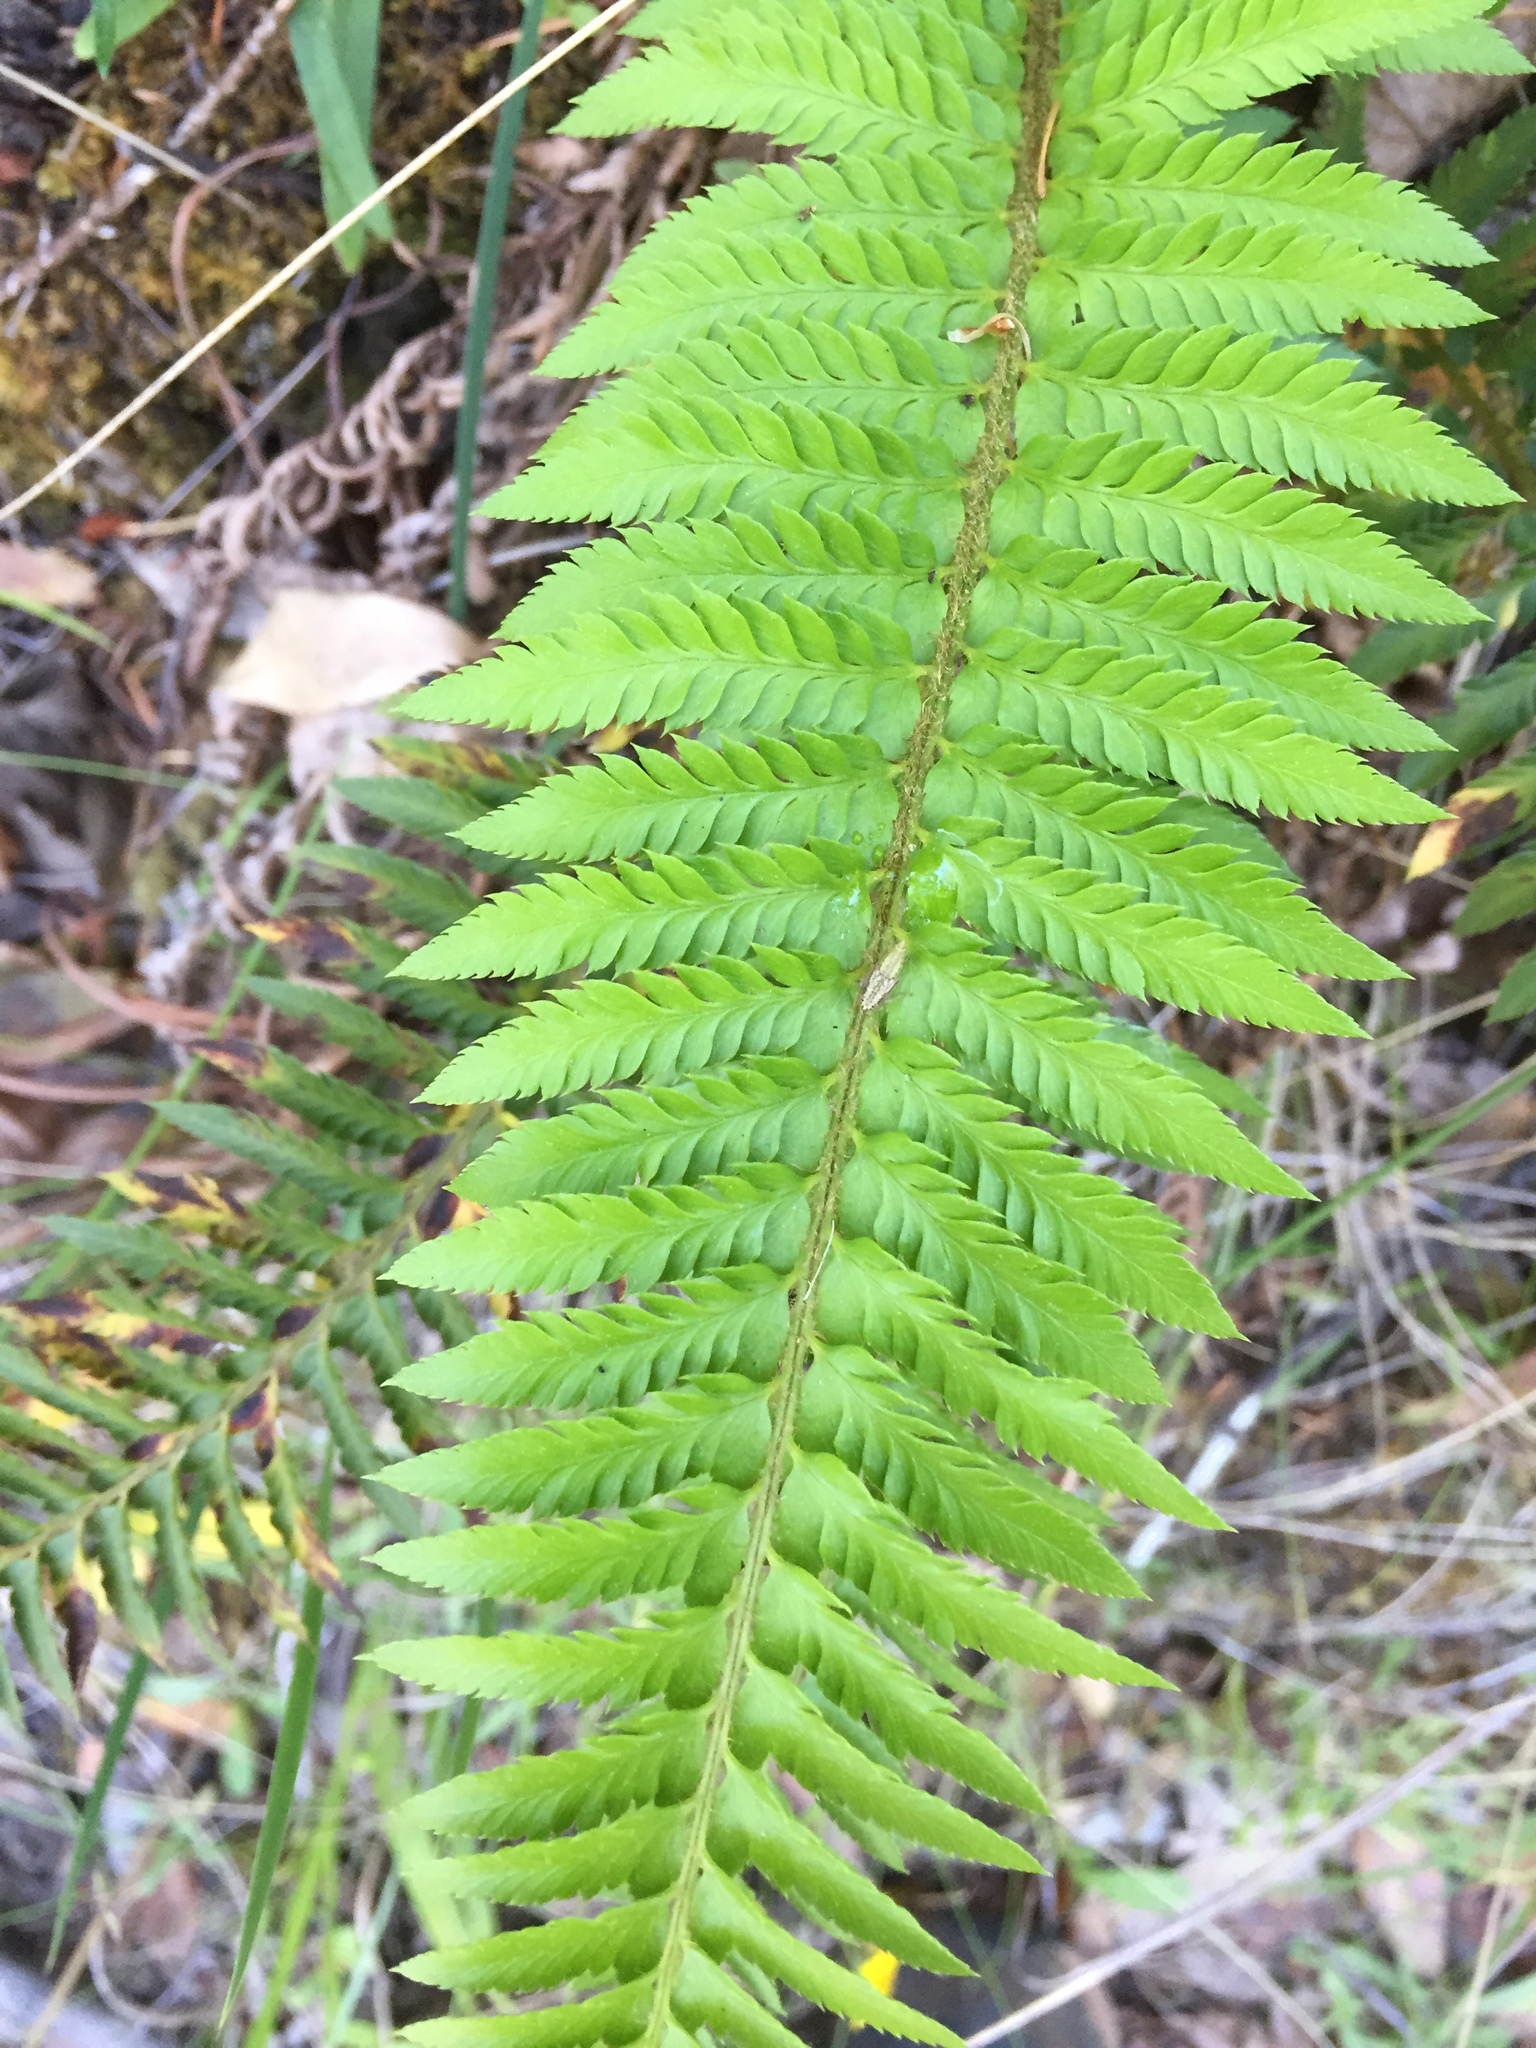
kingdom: Plantae
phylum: Tracheophyta
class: Polypodiopsida
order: Polypodiales
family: Dryopteridaceae
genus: Polystichum
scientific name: Polystichum californicum
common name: California sword fern
